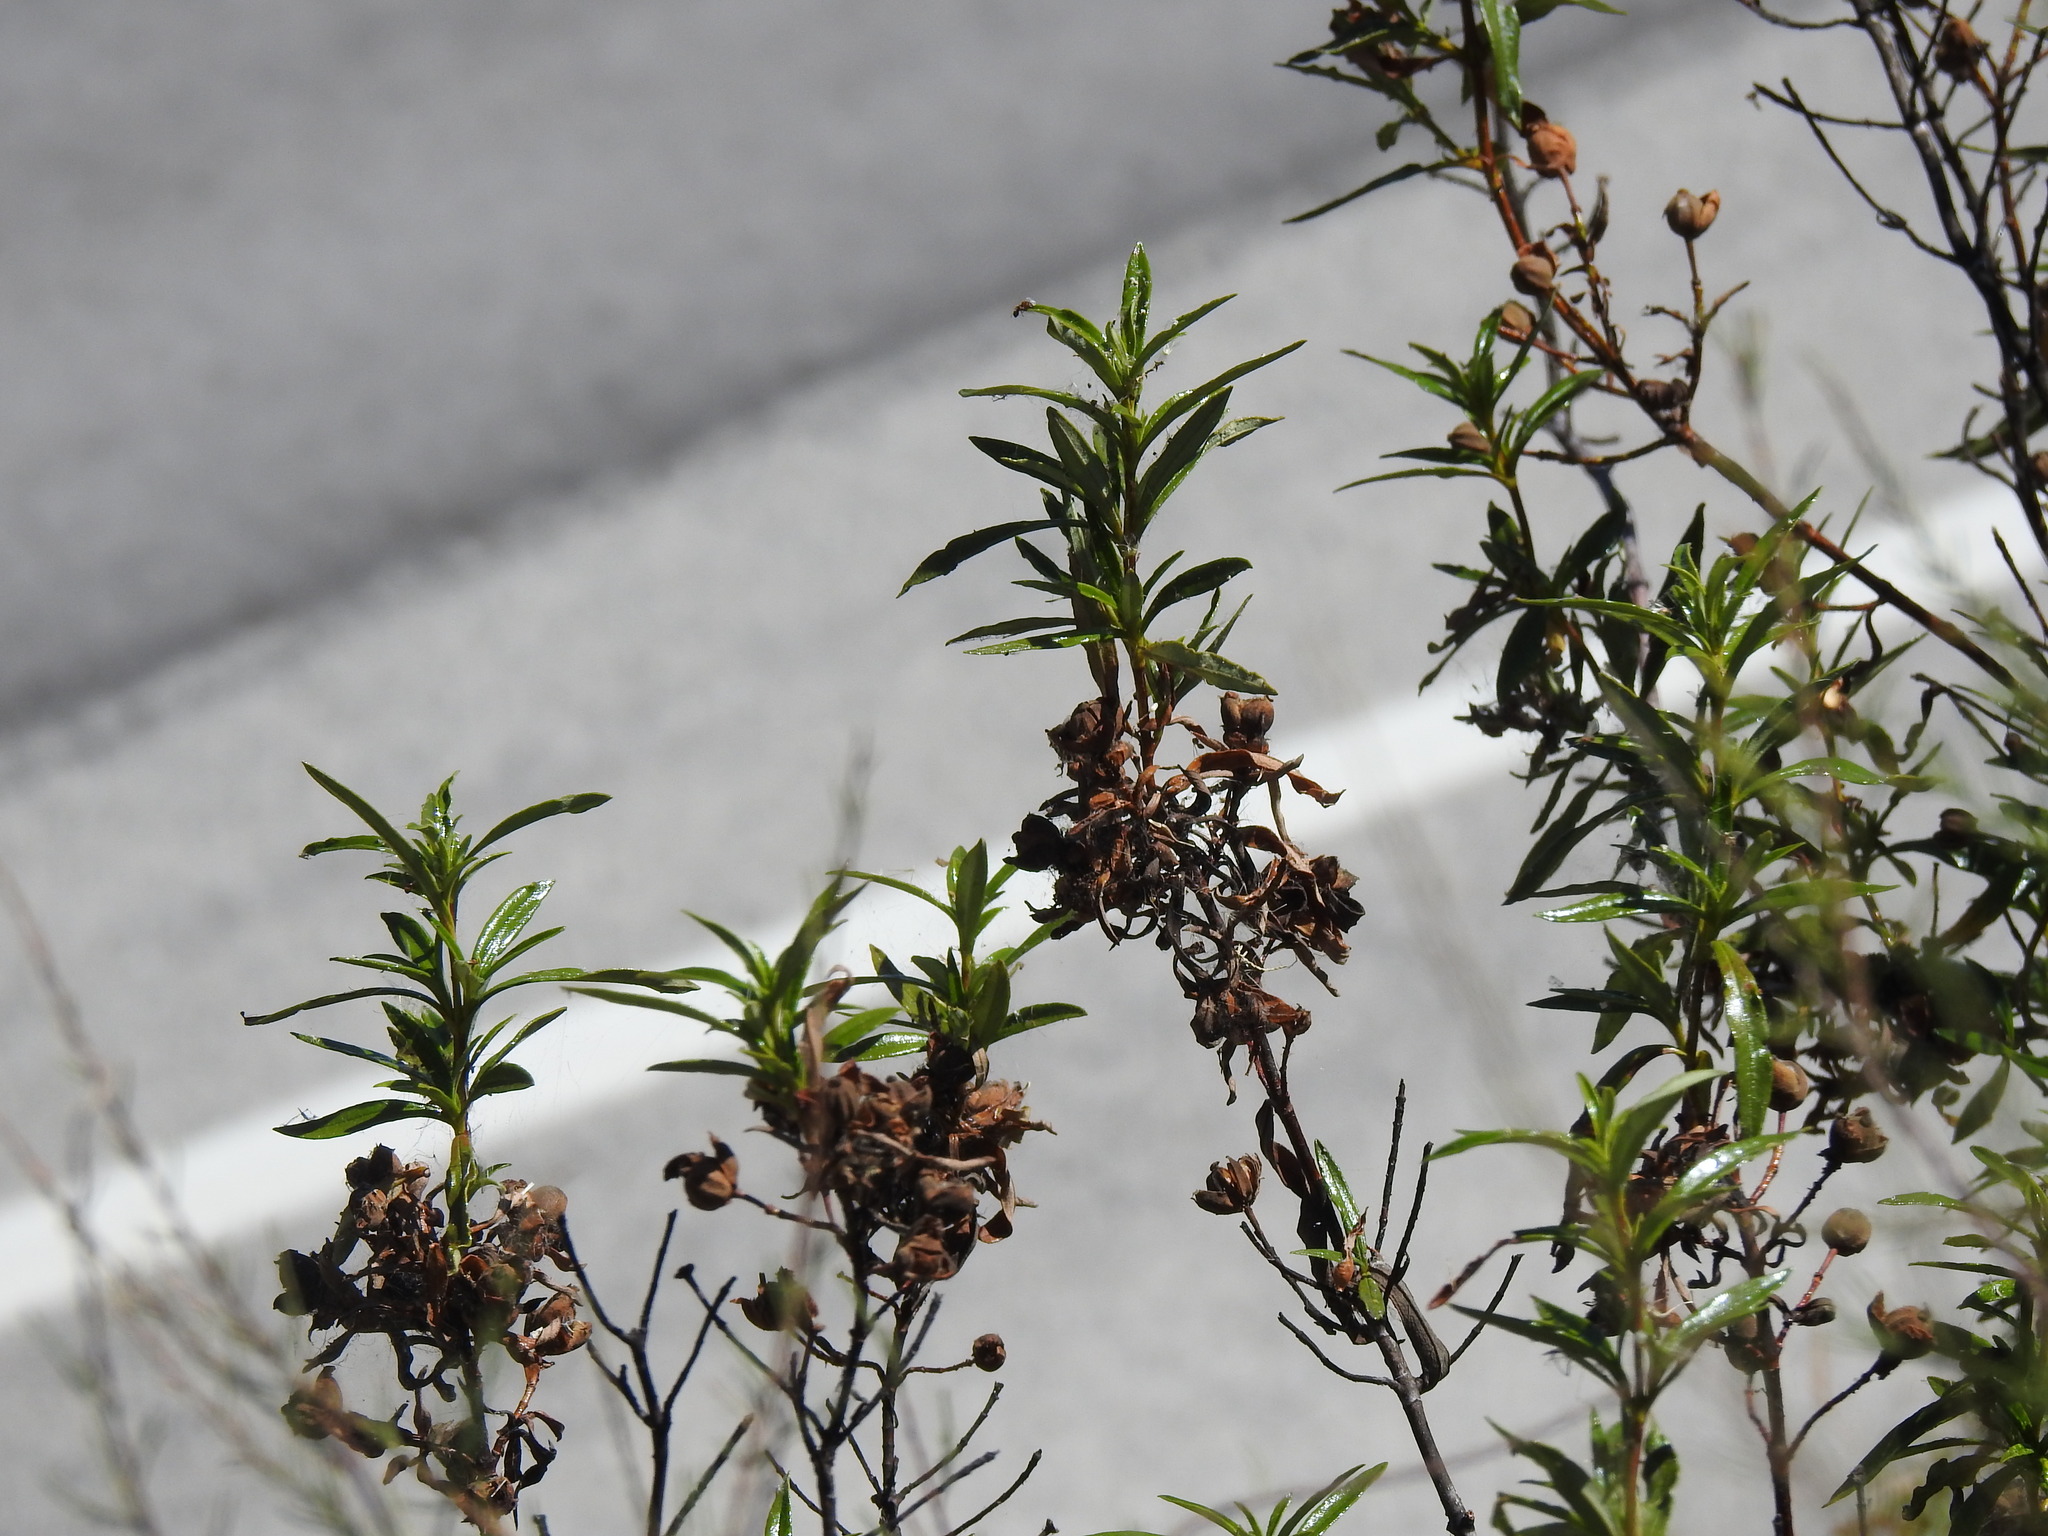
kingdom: Plantae
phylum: Tracheophyta
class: Magnoliopsida
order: Malvales
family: Cistaceae
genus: Cistus
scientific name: Cistus ladanifer
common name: Common gum cistus
